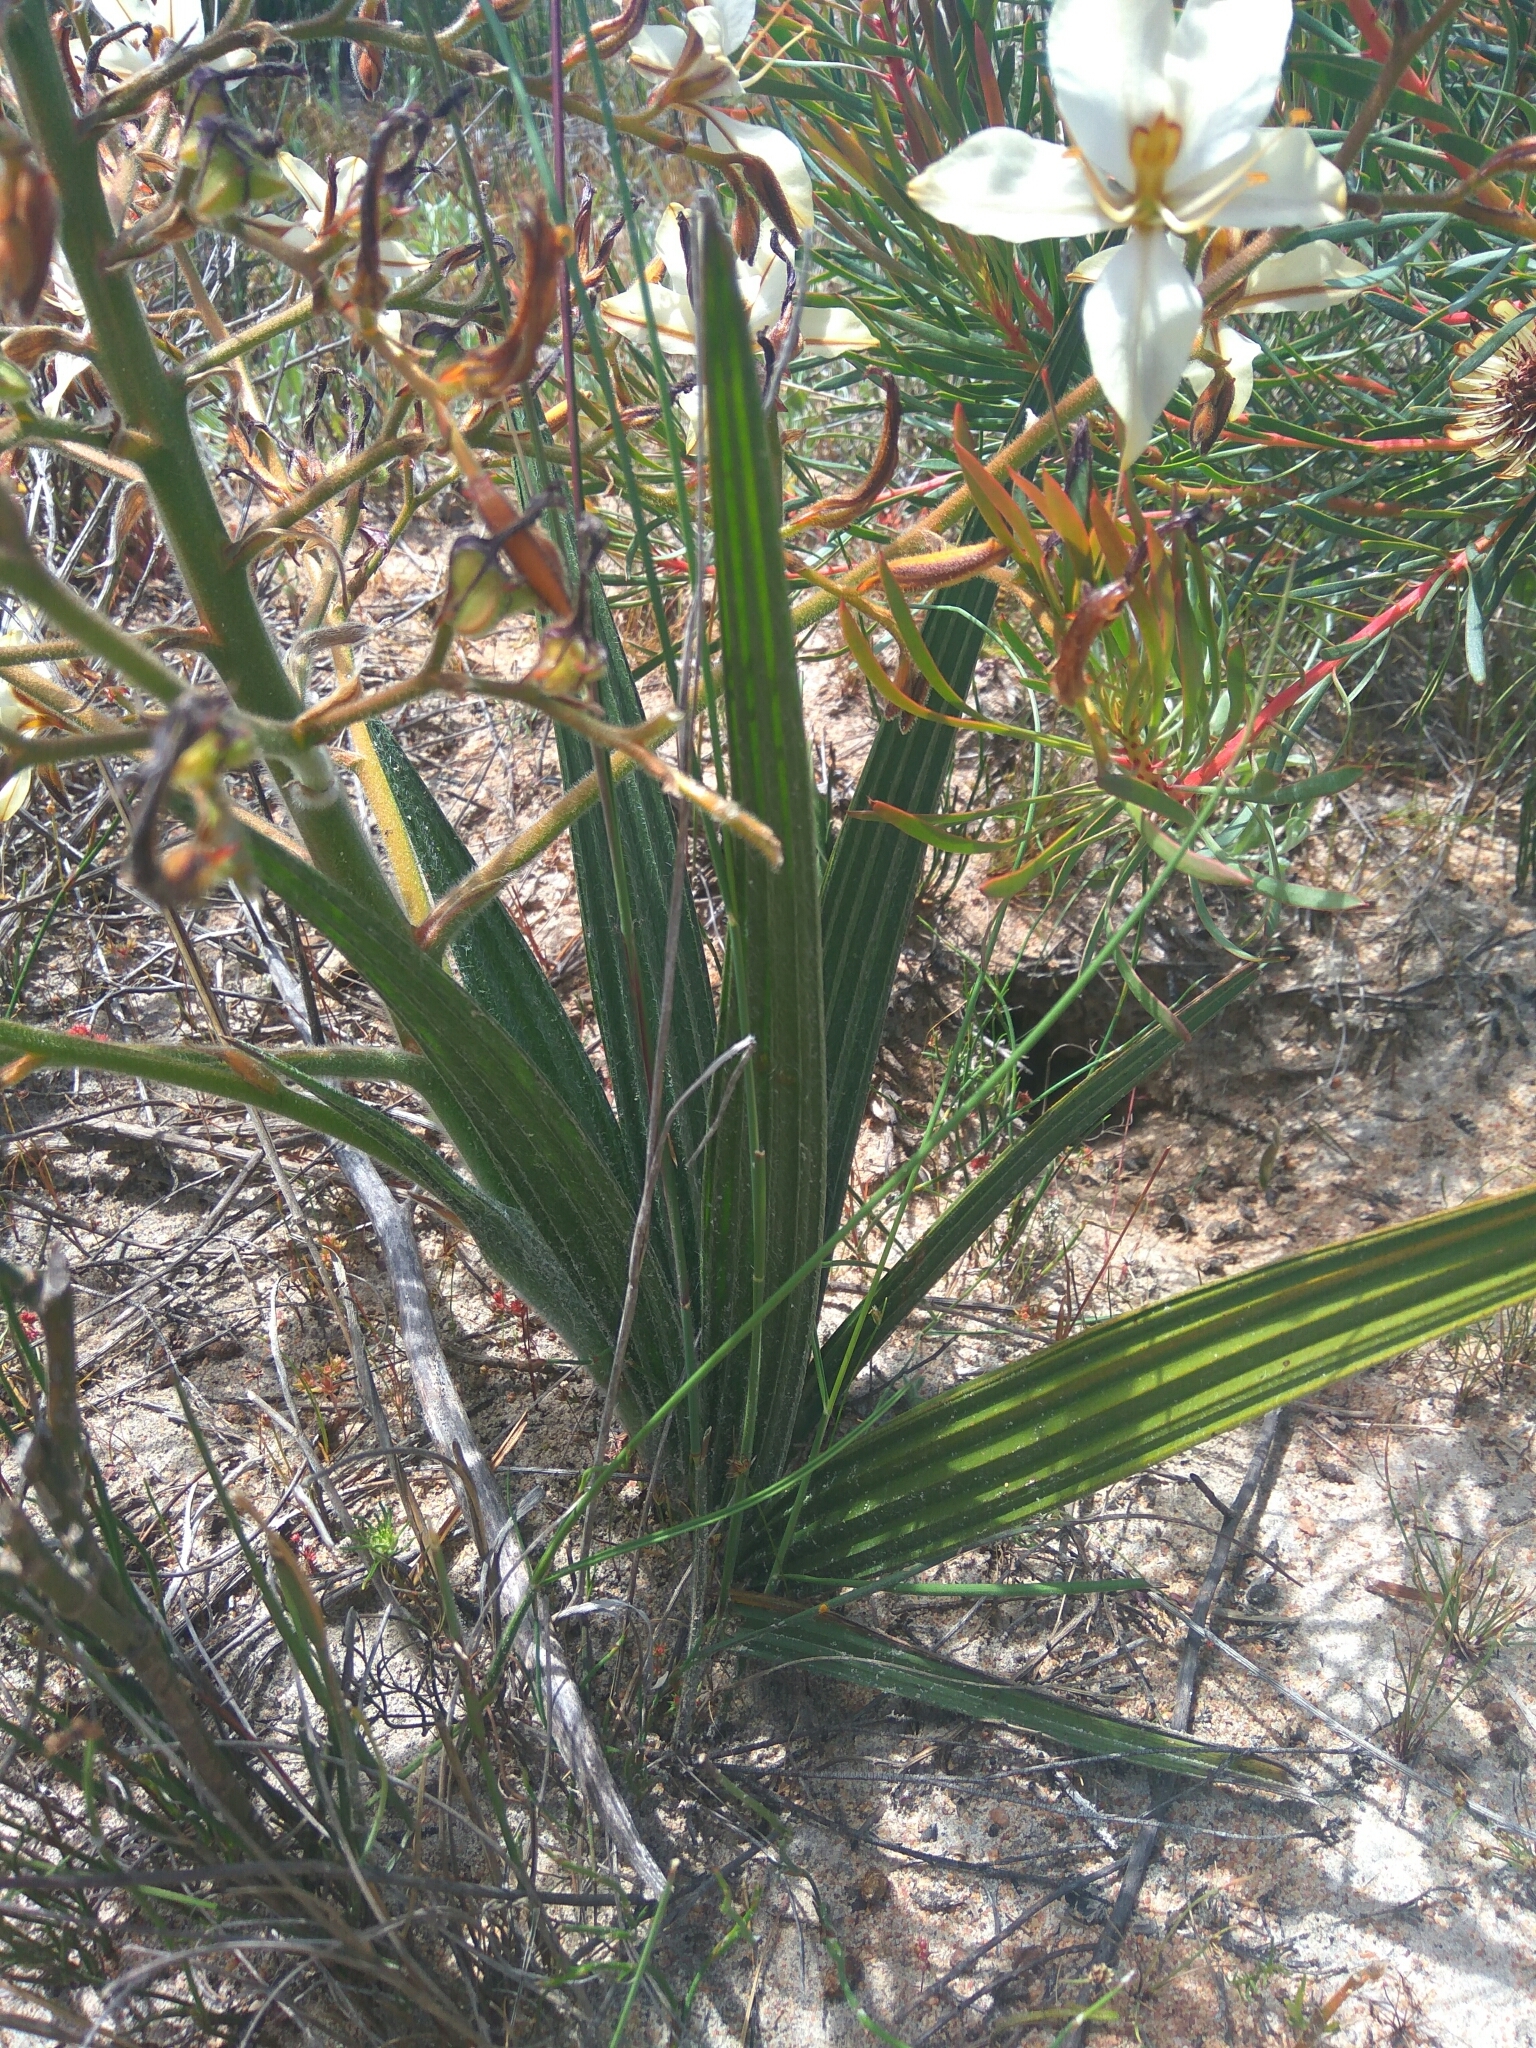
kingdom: Plantae
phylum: Tracheophyta
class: Liliopsida
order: Commelinales
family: Haemodoraceae
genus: Wachendorfia
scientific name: Wachendorfia paniculata
